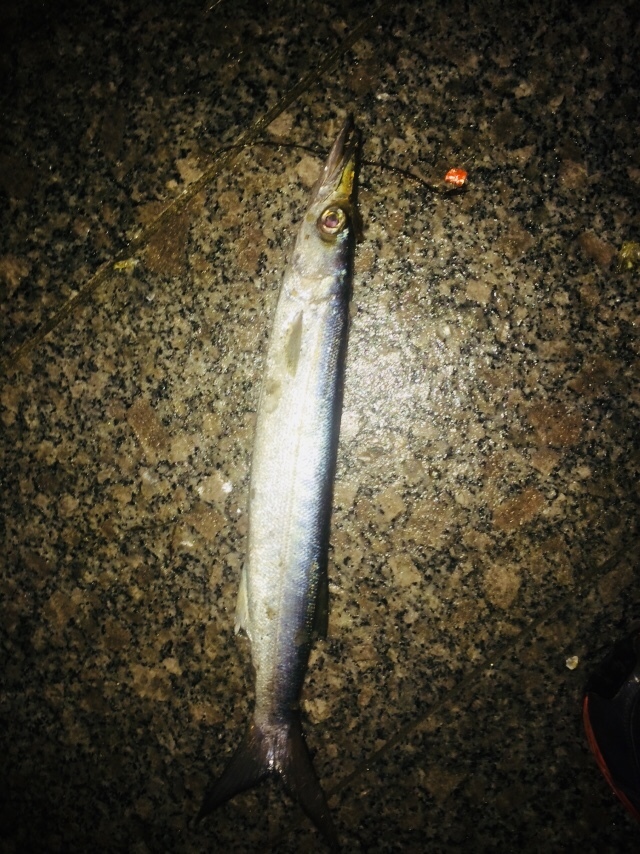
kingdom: Animalia
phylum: Chordata
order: Beloniformes
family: Belonidae
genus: Strongylura
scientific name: Strongylura marina
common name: Atlantic needlefish
